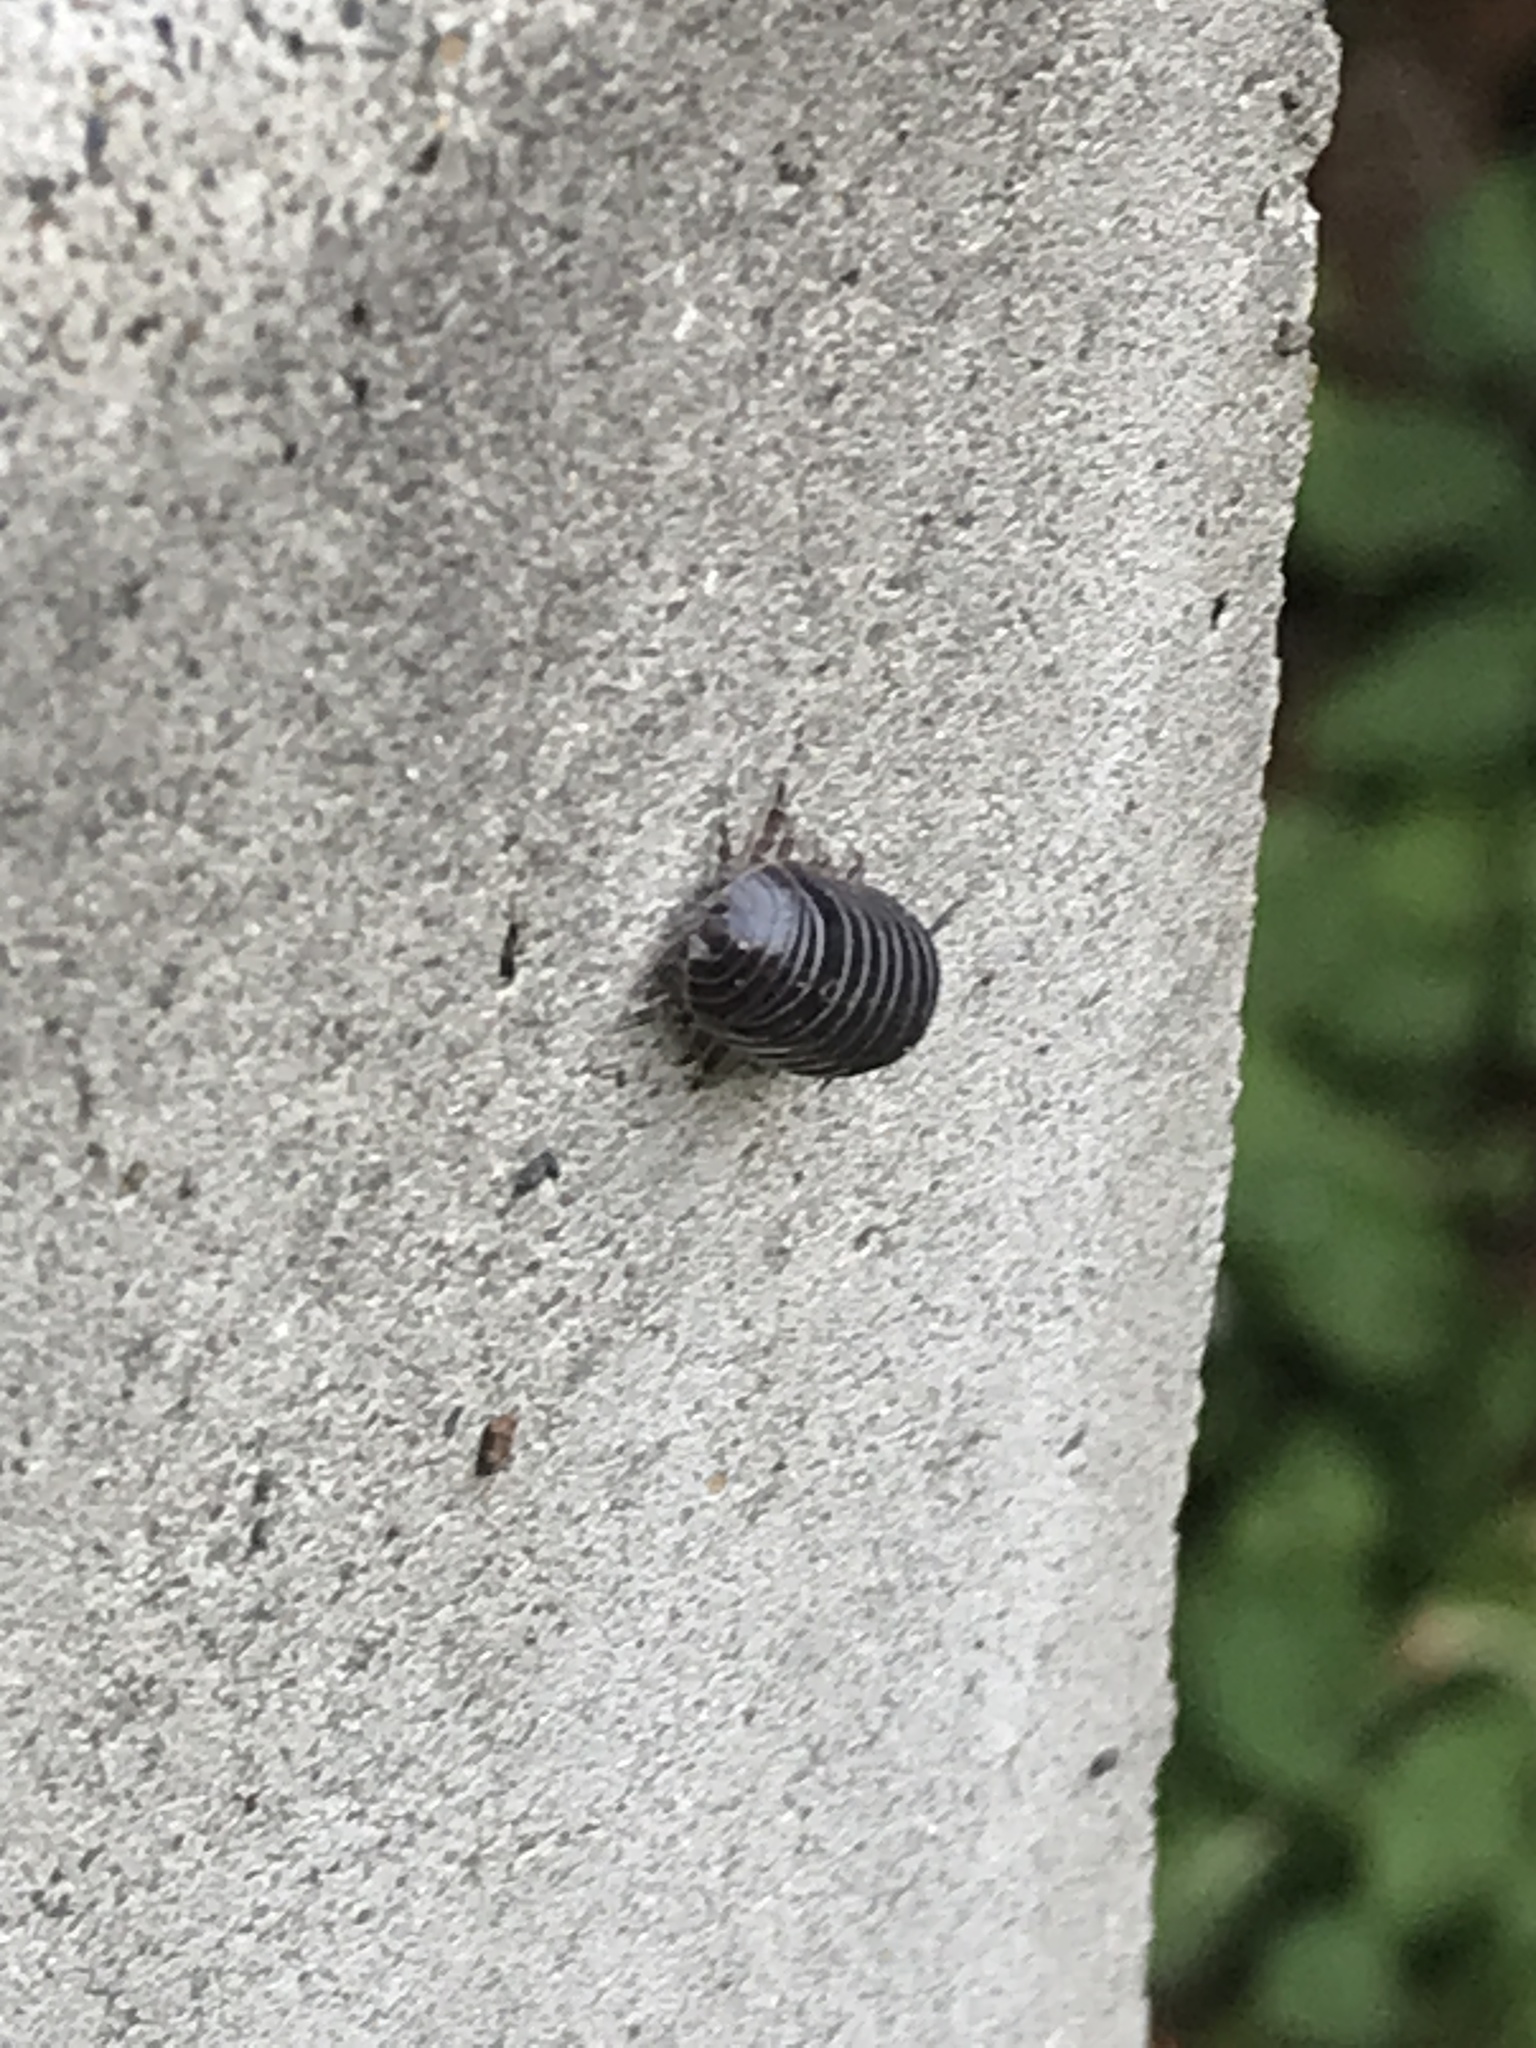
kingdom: Animalia
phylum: Arthropoda
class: Malacostraca
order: Isopoda
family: Armadillidiidae
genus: Armadillidium
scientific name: Armadillidium vulgare
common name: Common pill woodlouse
